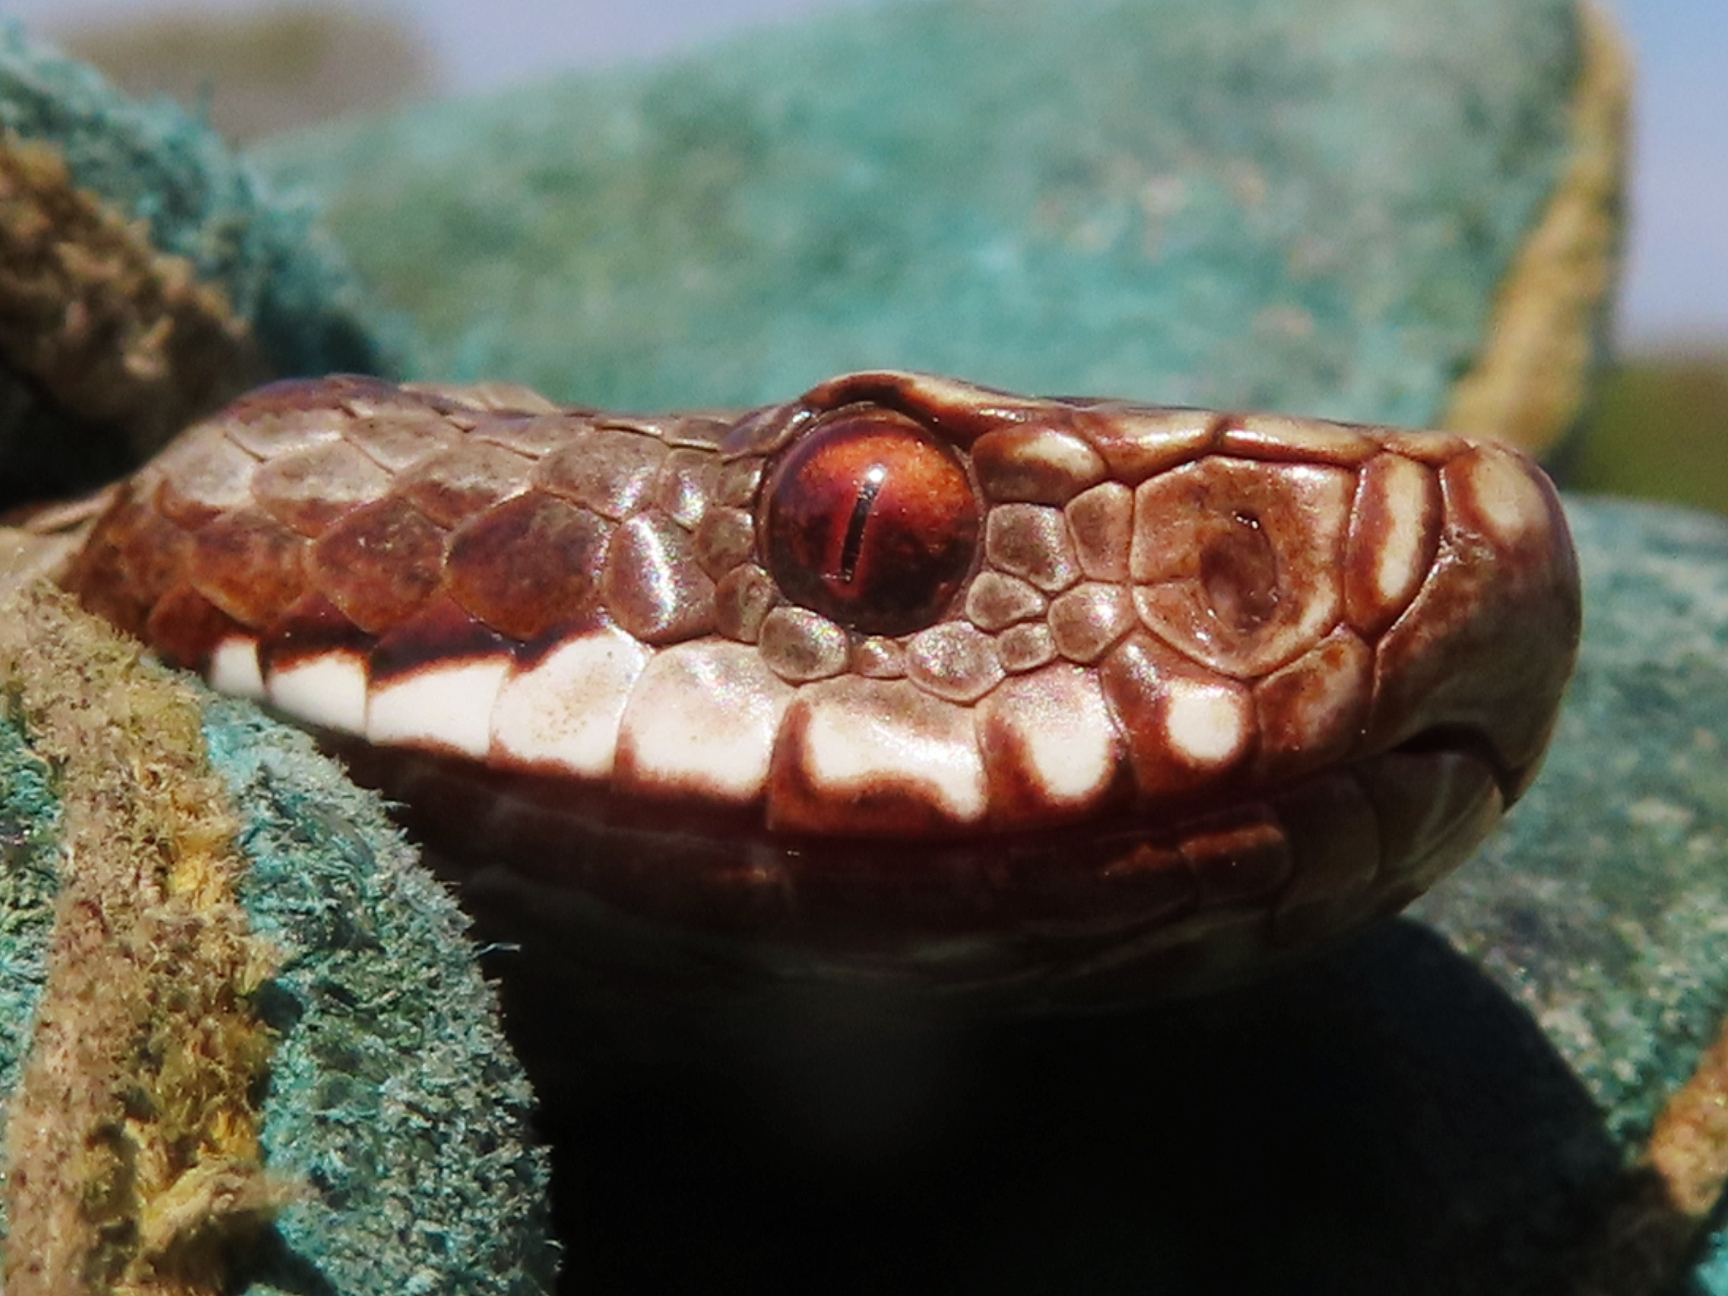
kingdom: Animalia
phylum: Chordata
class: Squamata
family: Viperidae
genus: Vipera
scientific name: Vipera berus
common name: Adder
